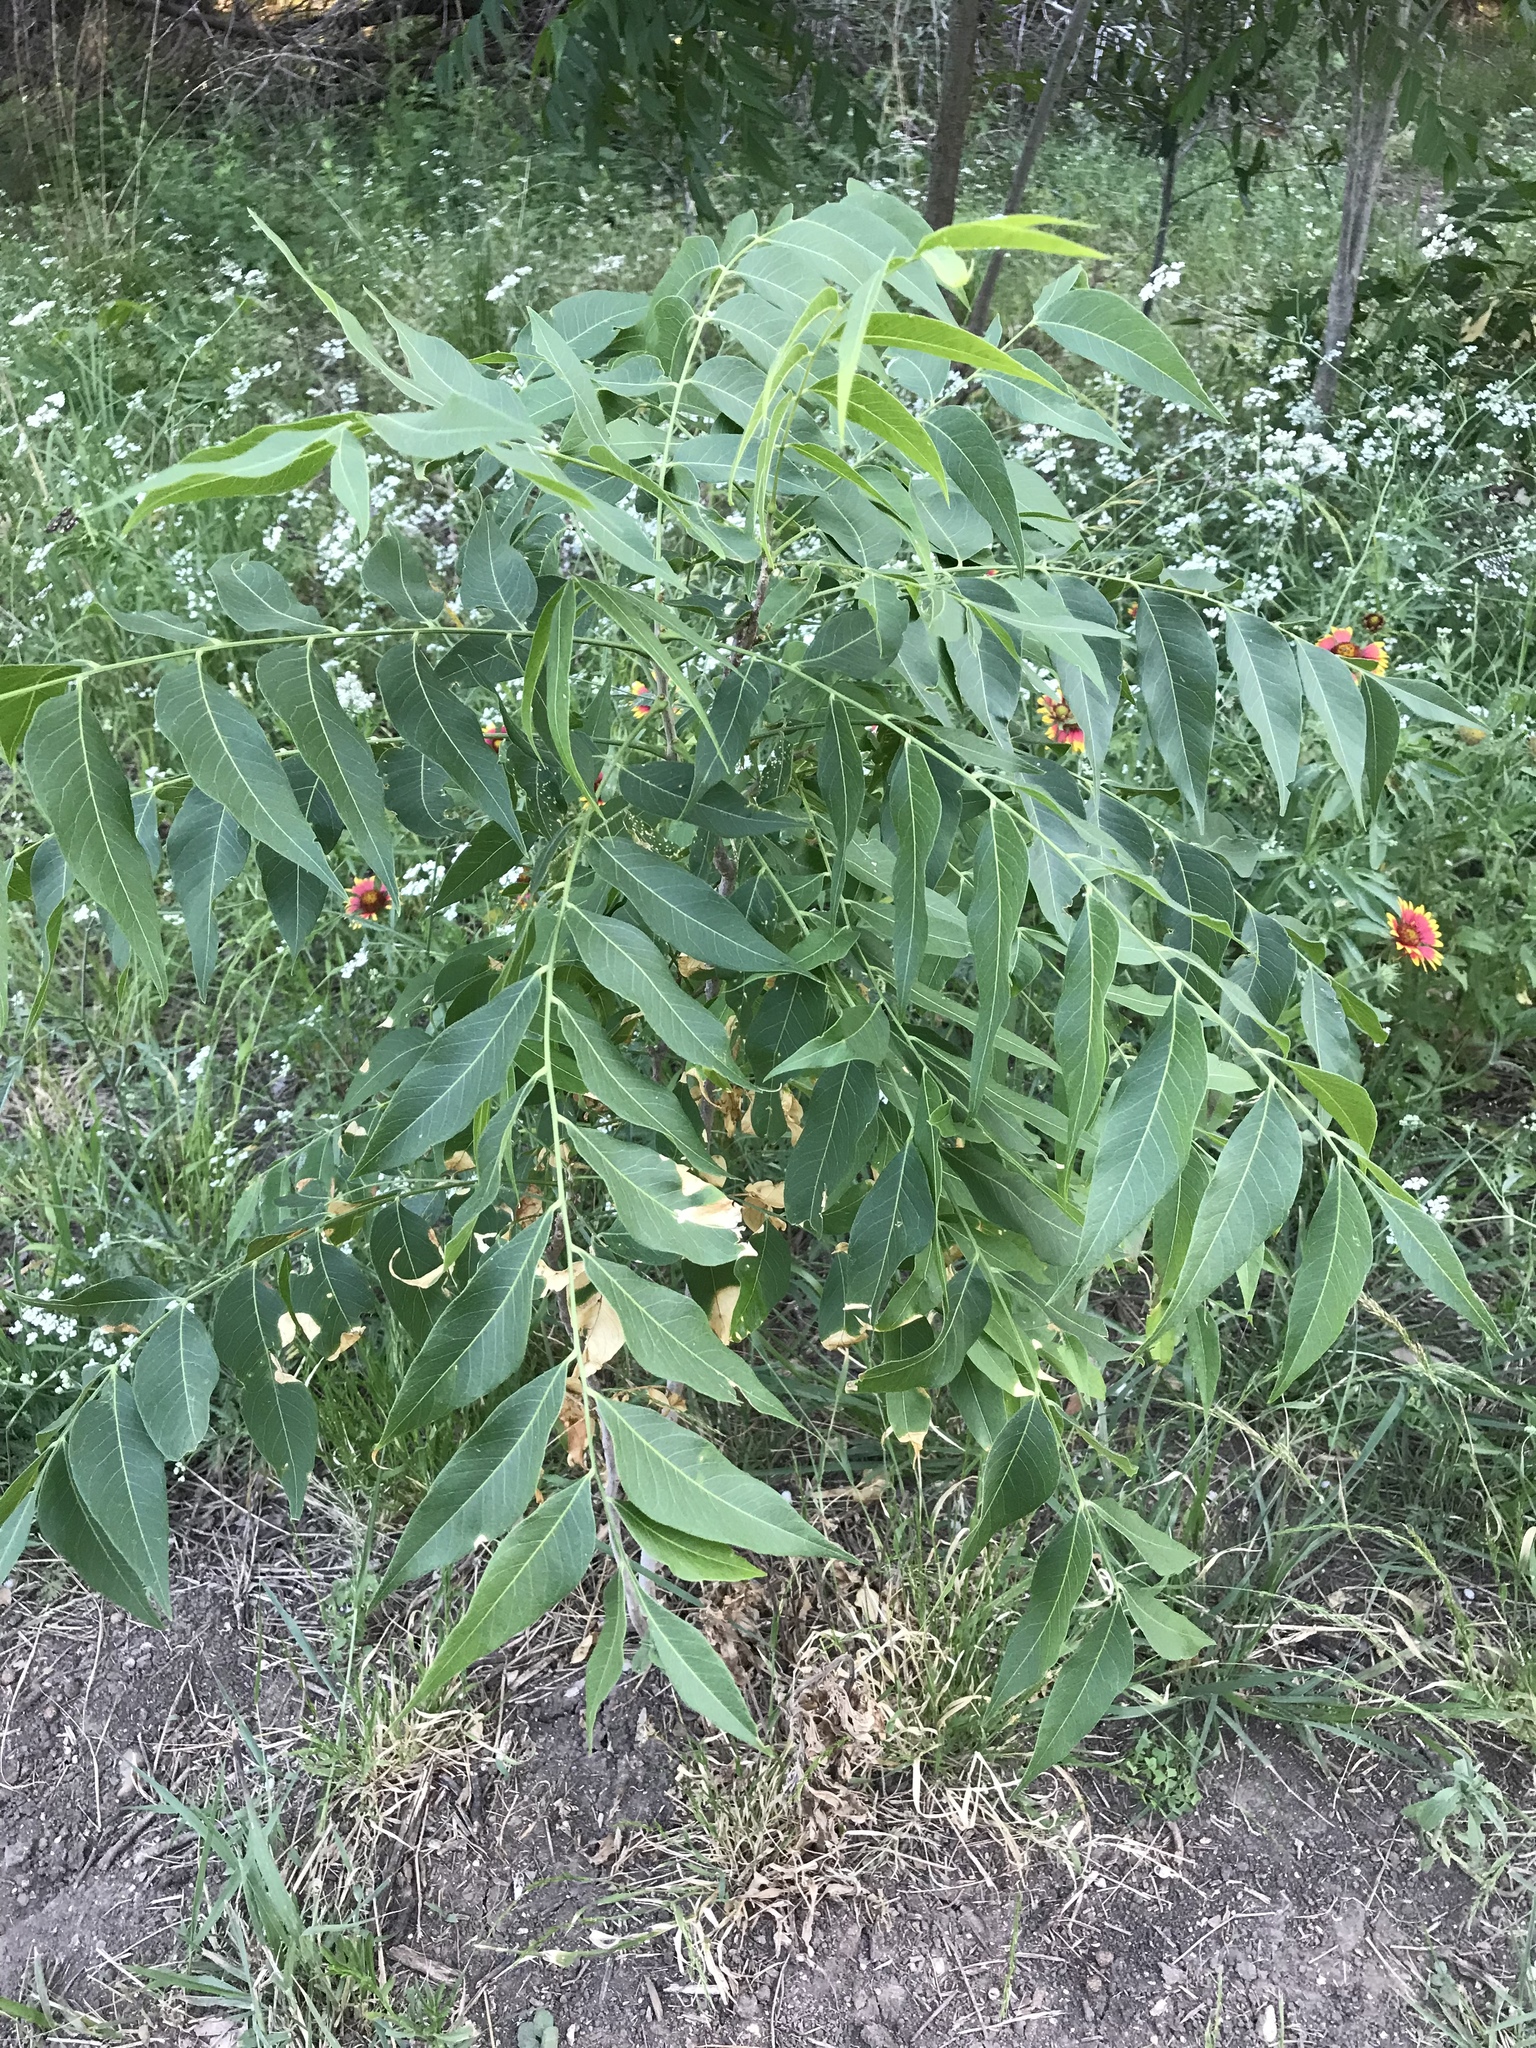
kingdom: Plantae
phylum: Tracheophyta
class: Magnoliopsida
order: Sapindales
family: Sapindaceae
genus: Sapindus
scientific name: Sapindus drummondii
